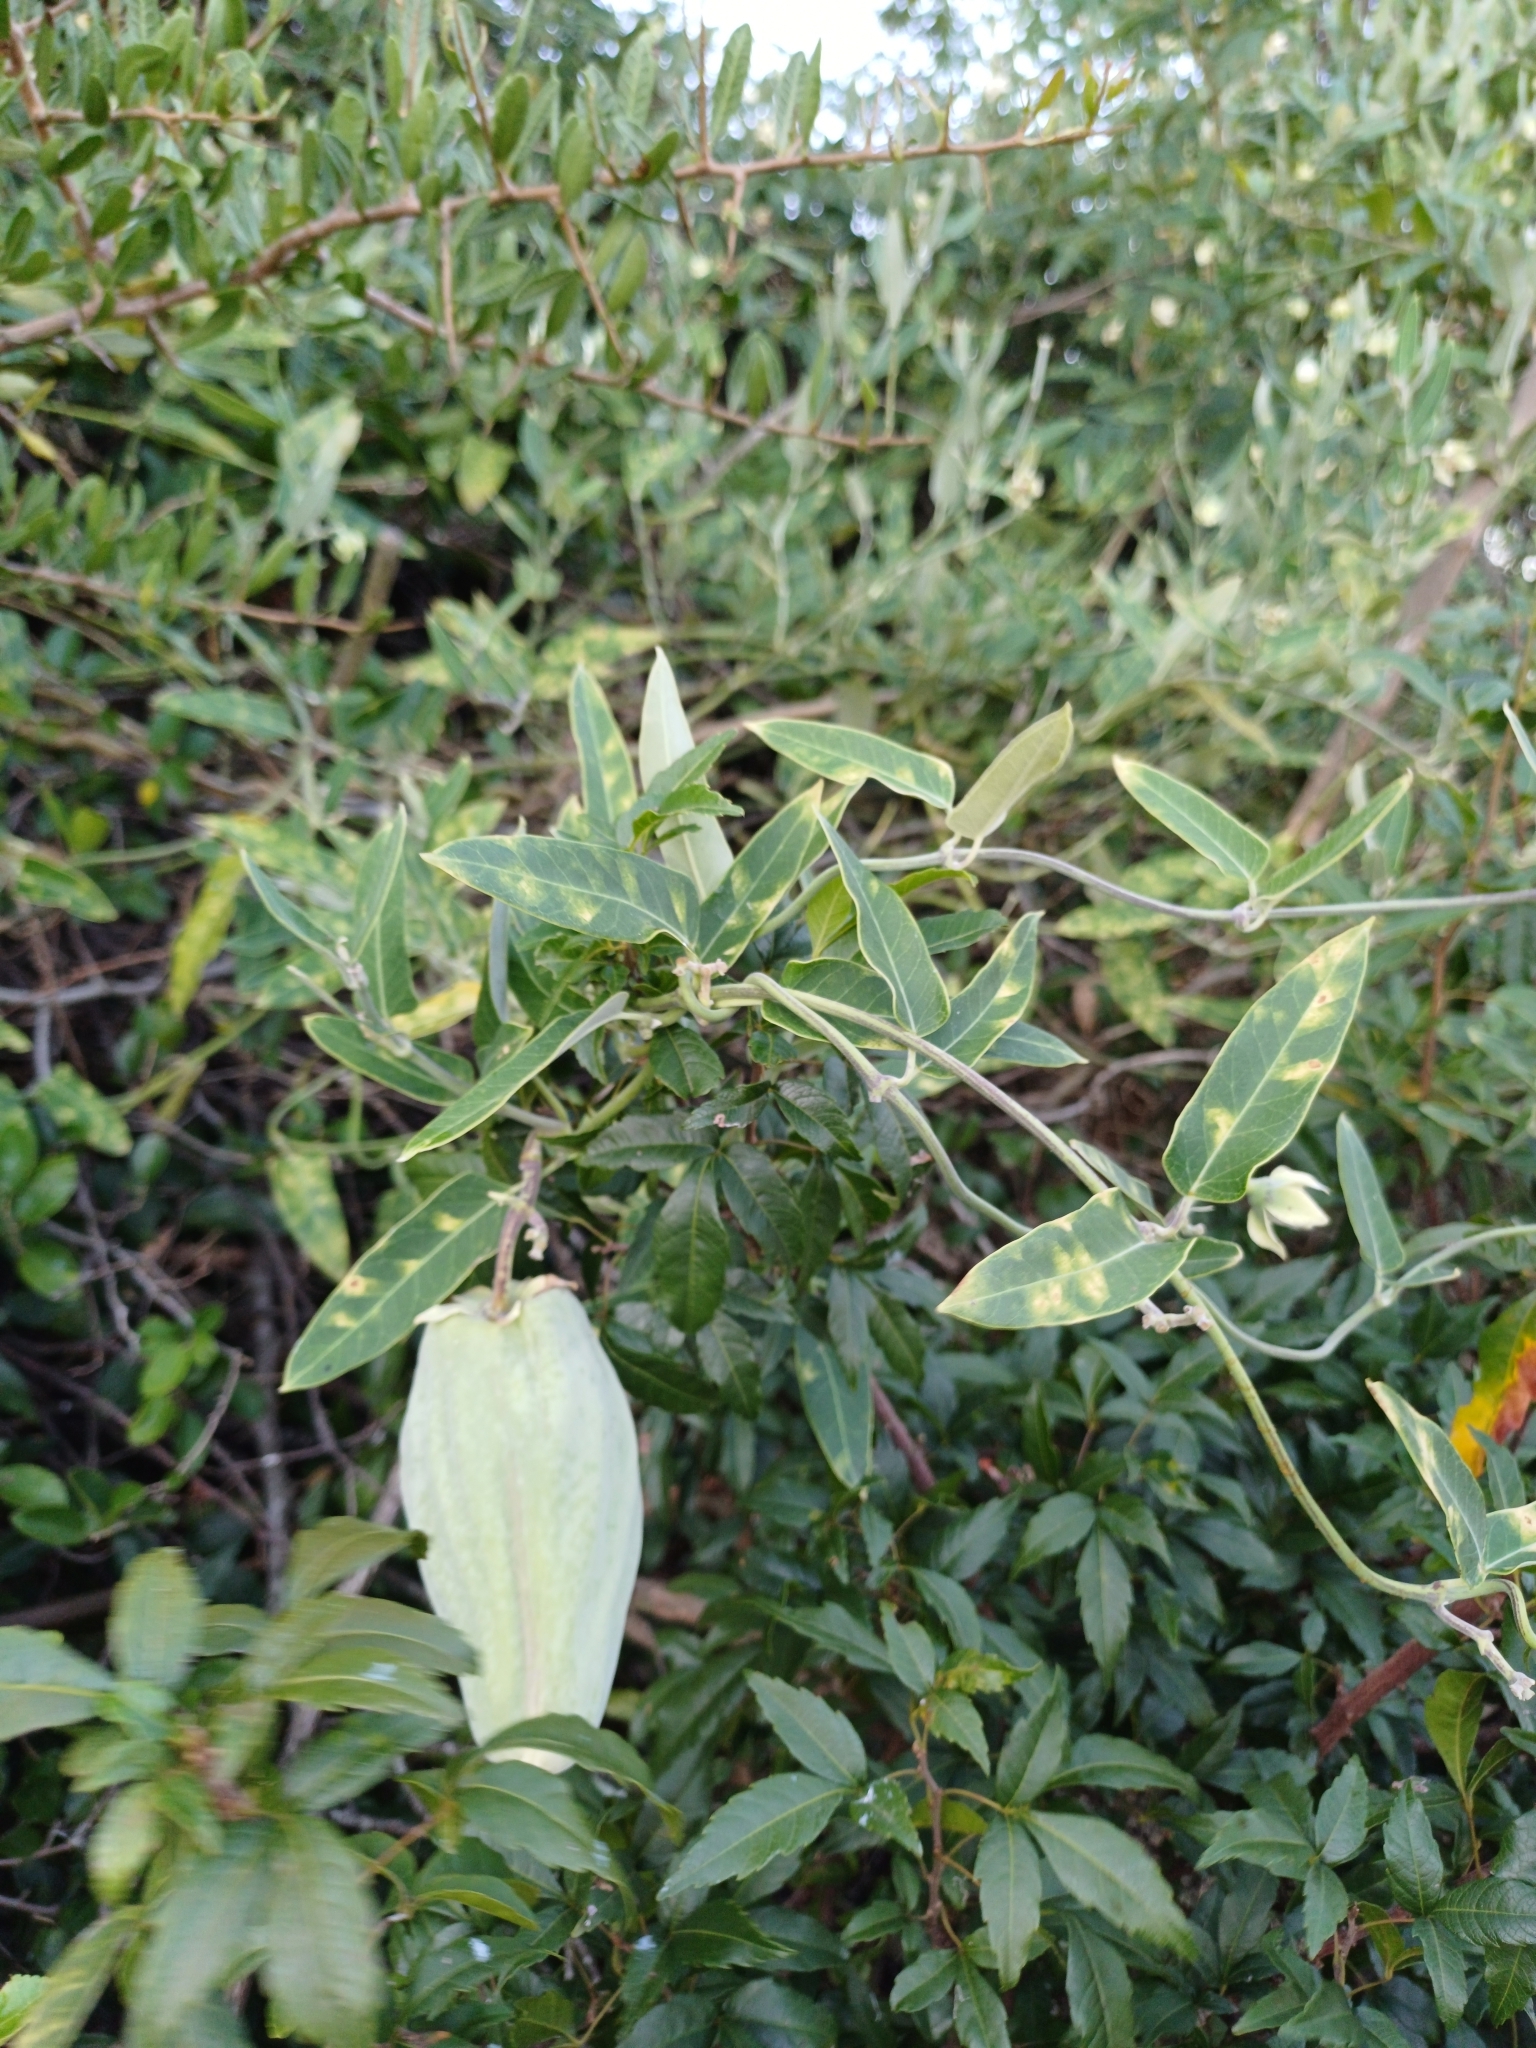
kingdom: Plantae
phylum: Tracheophyta
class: Magnoliopsida
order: Gentianales
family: Apocynaceae
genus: Araujia
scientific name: Araujia sericifera
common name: White bladderflower
